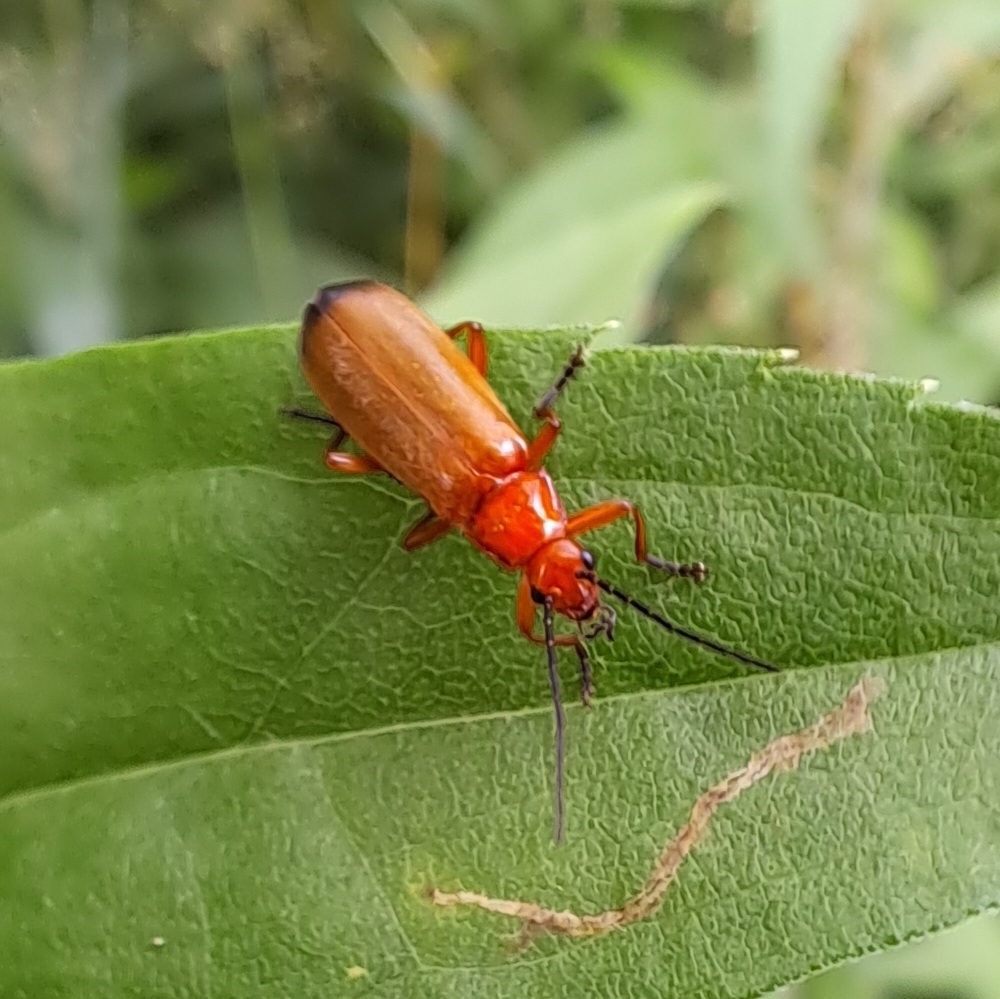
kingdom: Animalia
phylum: Arthropoda
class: Insecta
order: Coleoptera
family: Cantharidae
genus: Rhagonycha
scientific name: Rhagonycha fulva
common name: Common red soldier beetle
